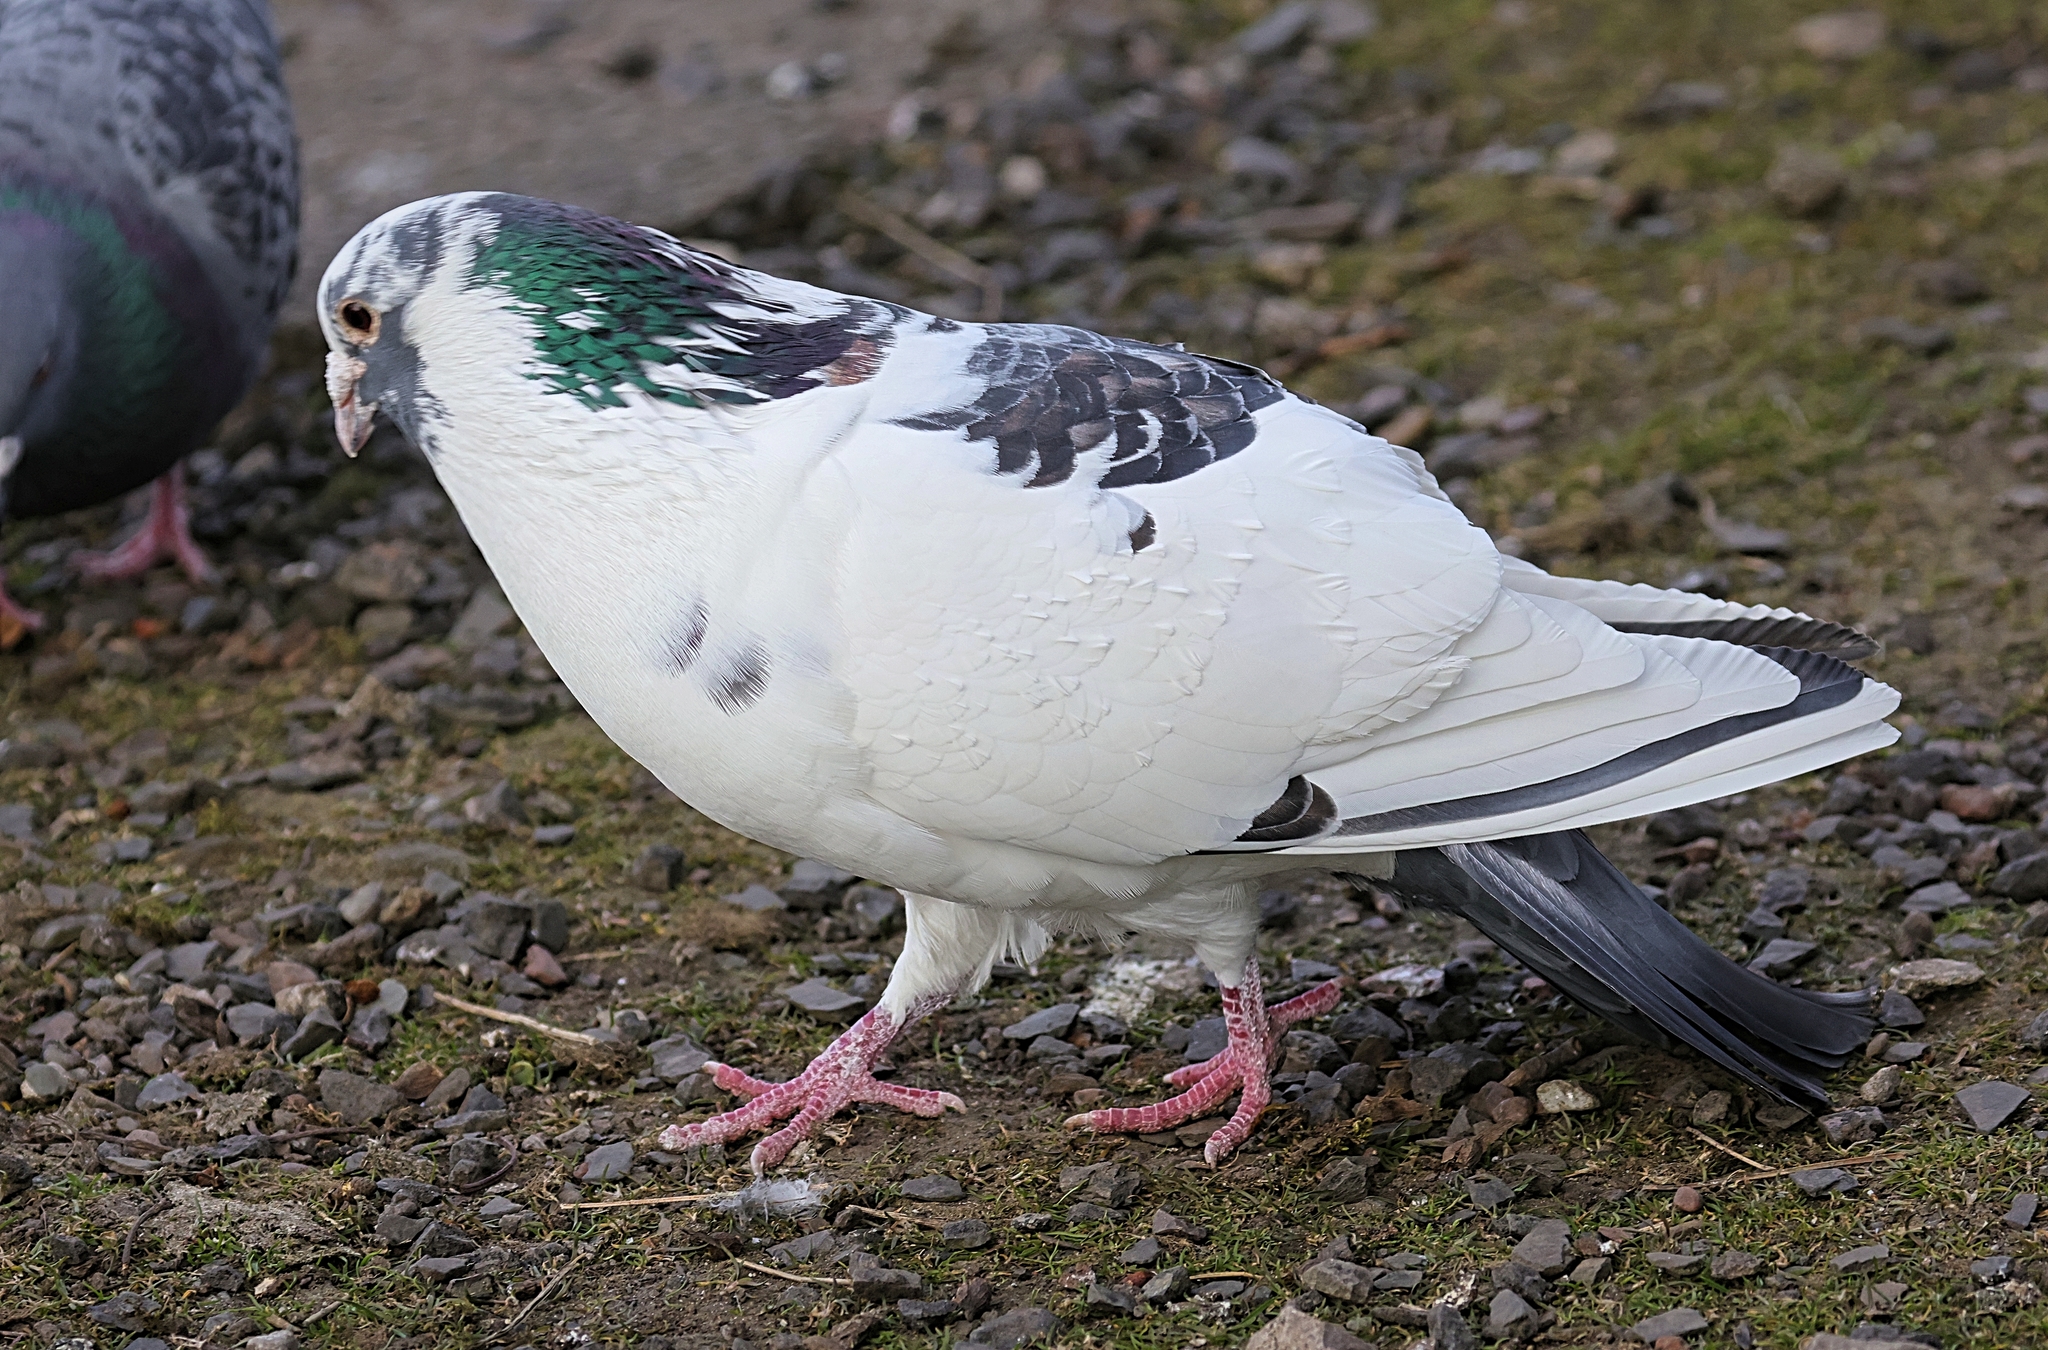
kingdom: Animalia
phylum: Chordata
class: Aves
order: Columbiformes
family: Columbidae
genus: Columba
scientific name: Columba livia
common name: Rock pigeon
